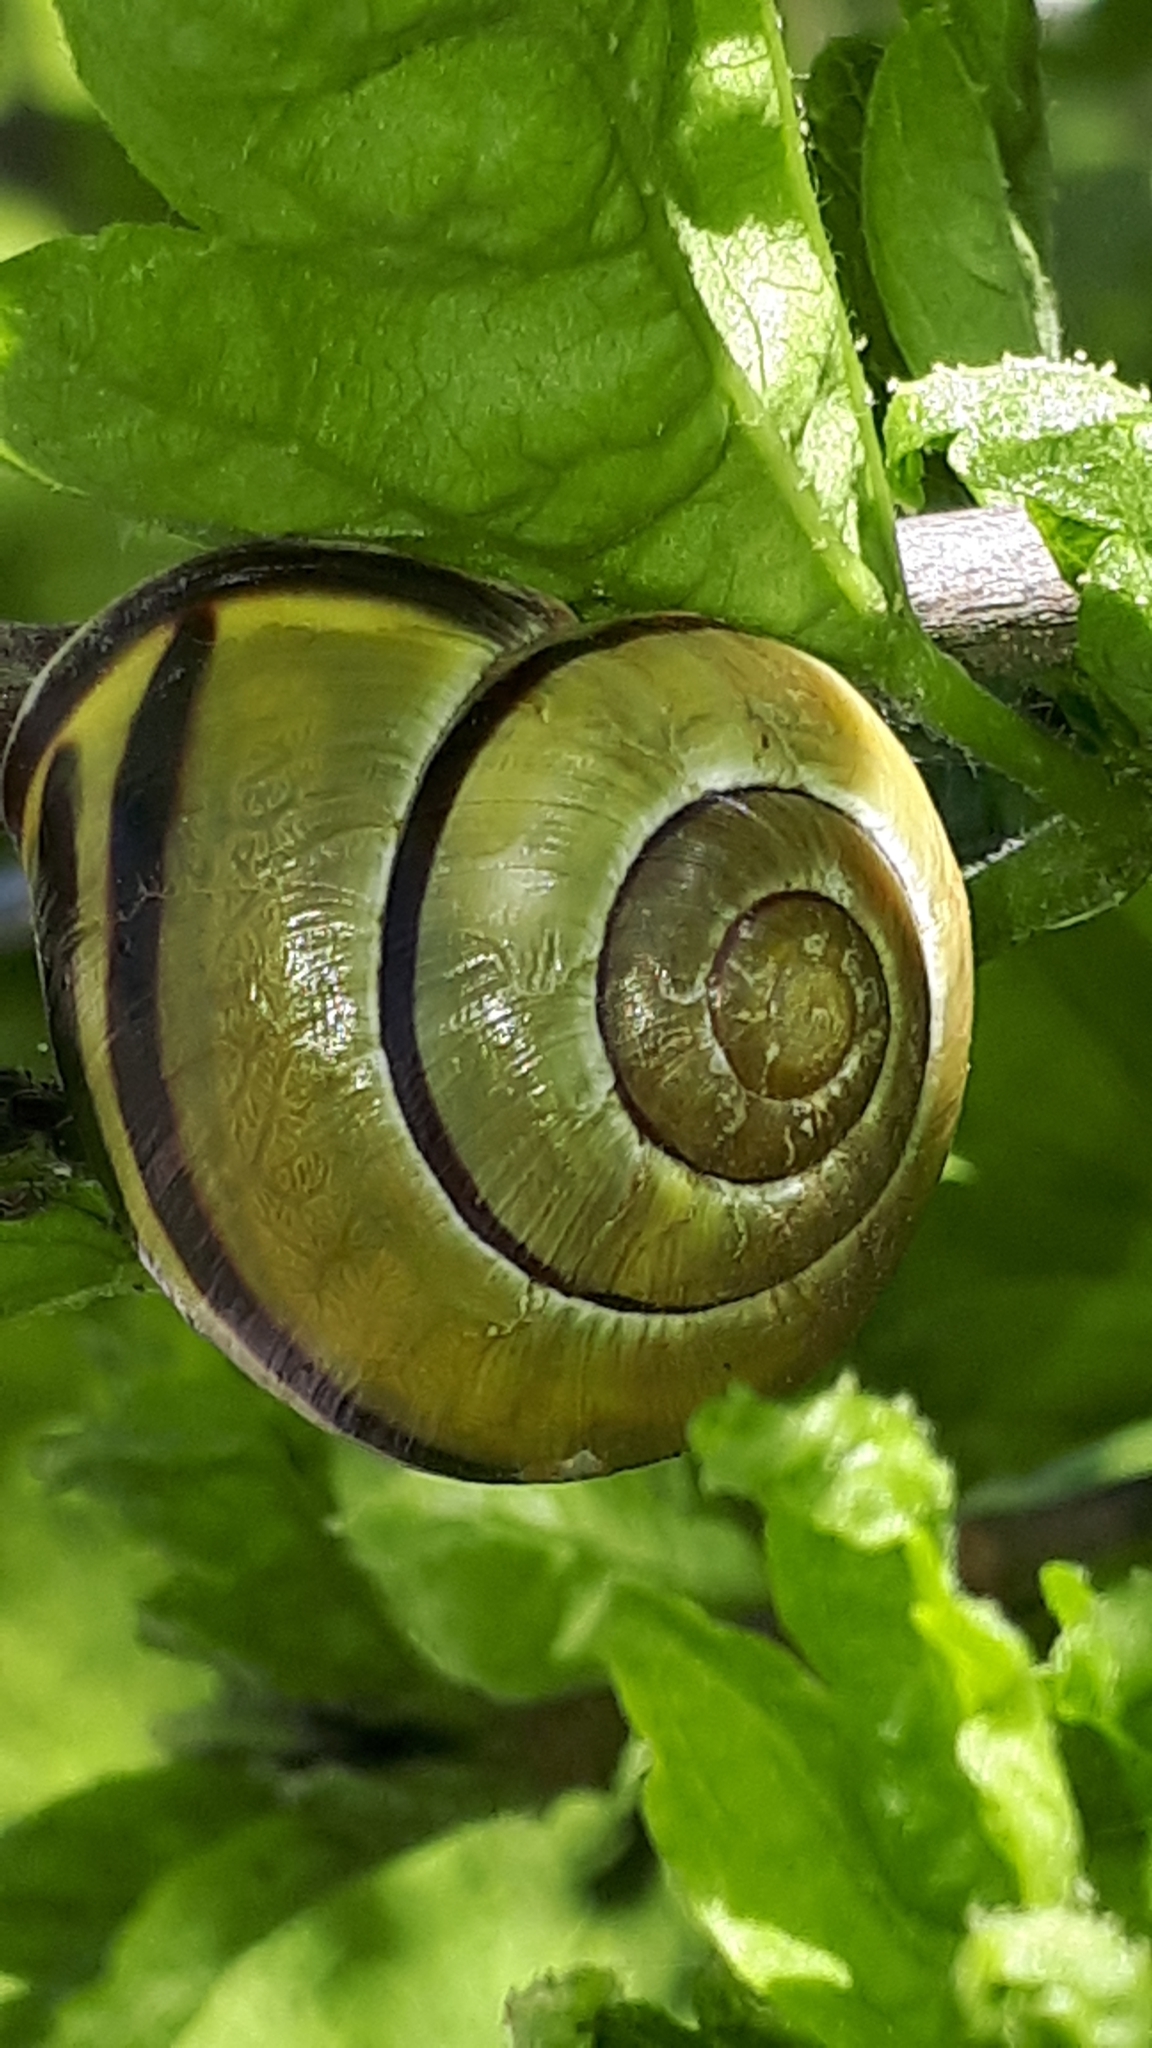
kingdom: Animalia
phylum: Mollusca
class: Gastropoda
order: Stylommatophora
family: Helicidae
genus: Cepaea
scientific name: Cepaea nemoralis
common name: Grovesnail
